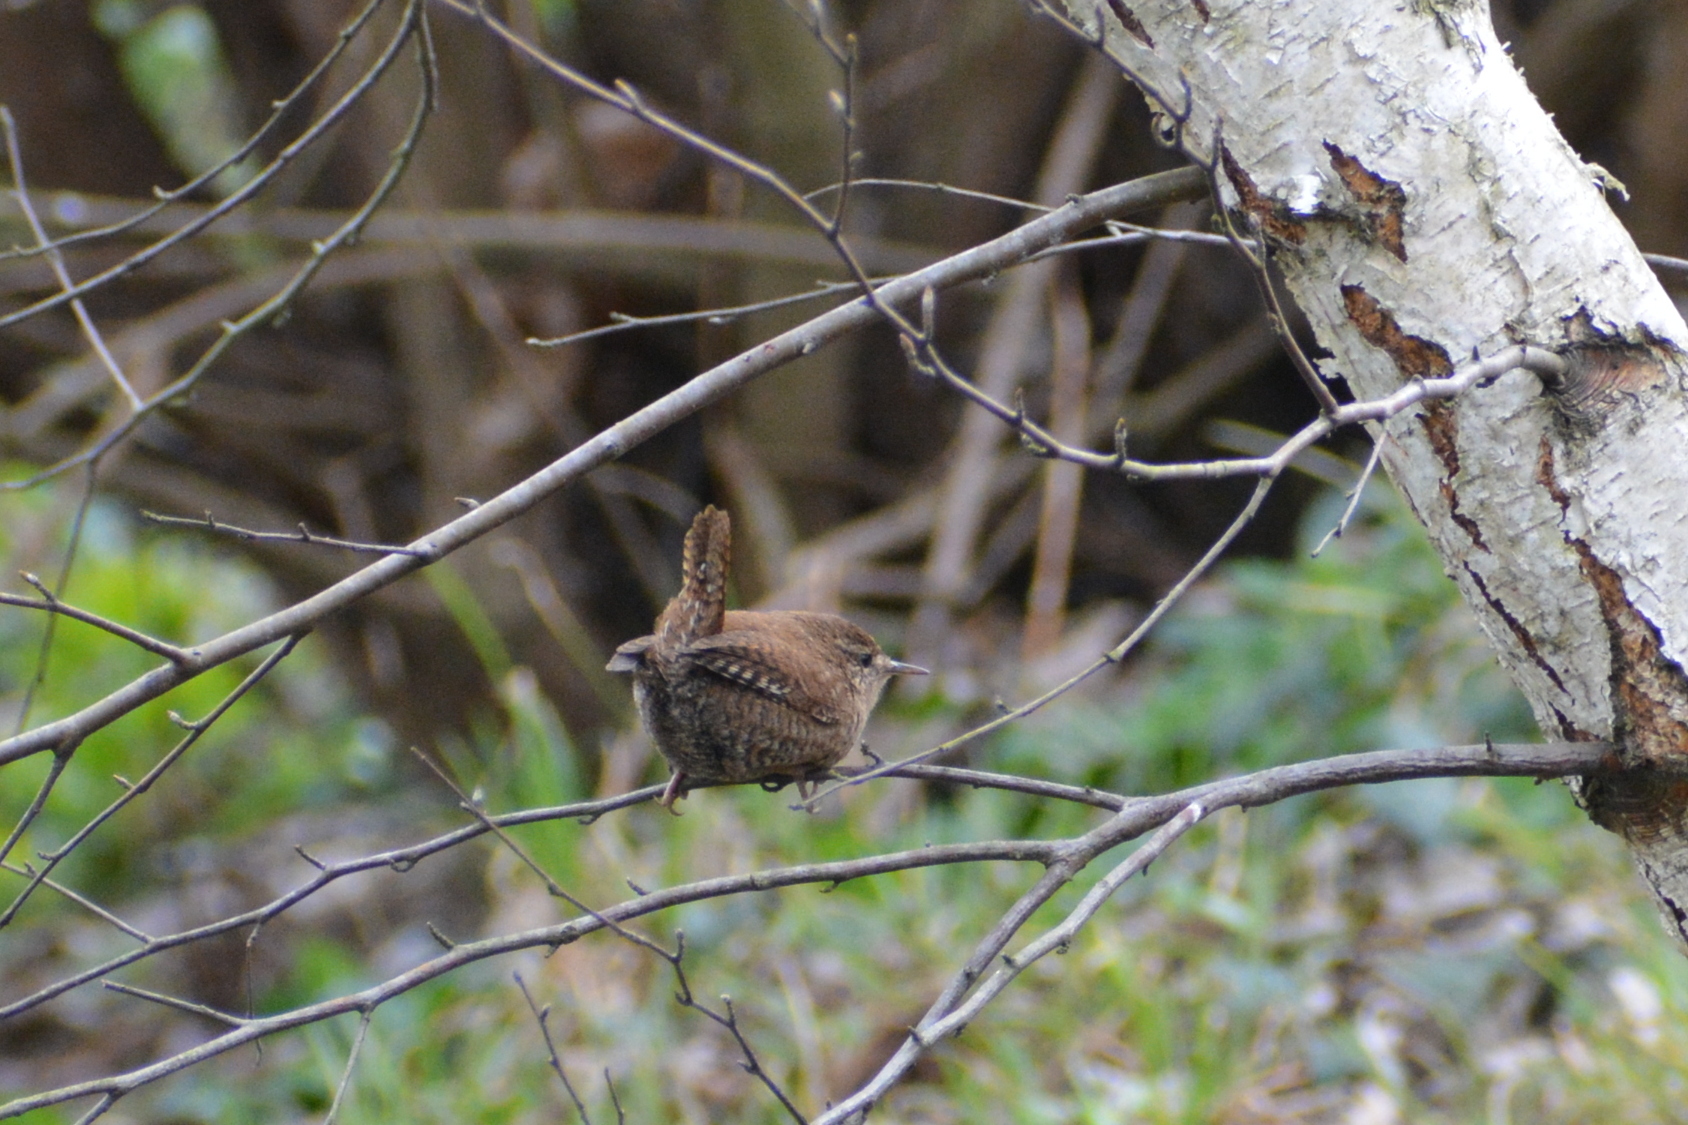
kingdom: Animalia
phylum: Chordata
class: Aves
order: Passeriformes
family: Troglodytidae
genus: Troglodytes
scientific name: Troglodytes troglodytes
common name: Eurasian wren
